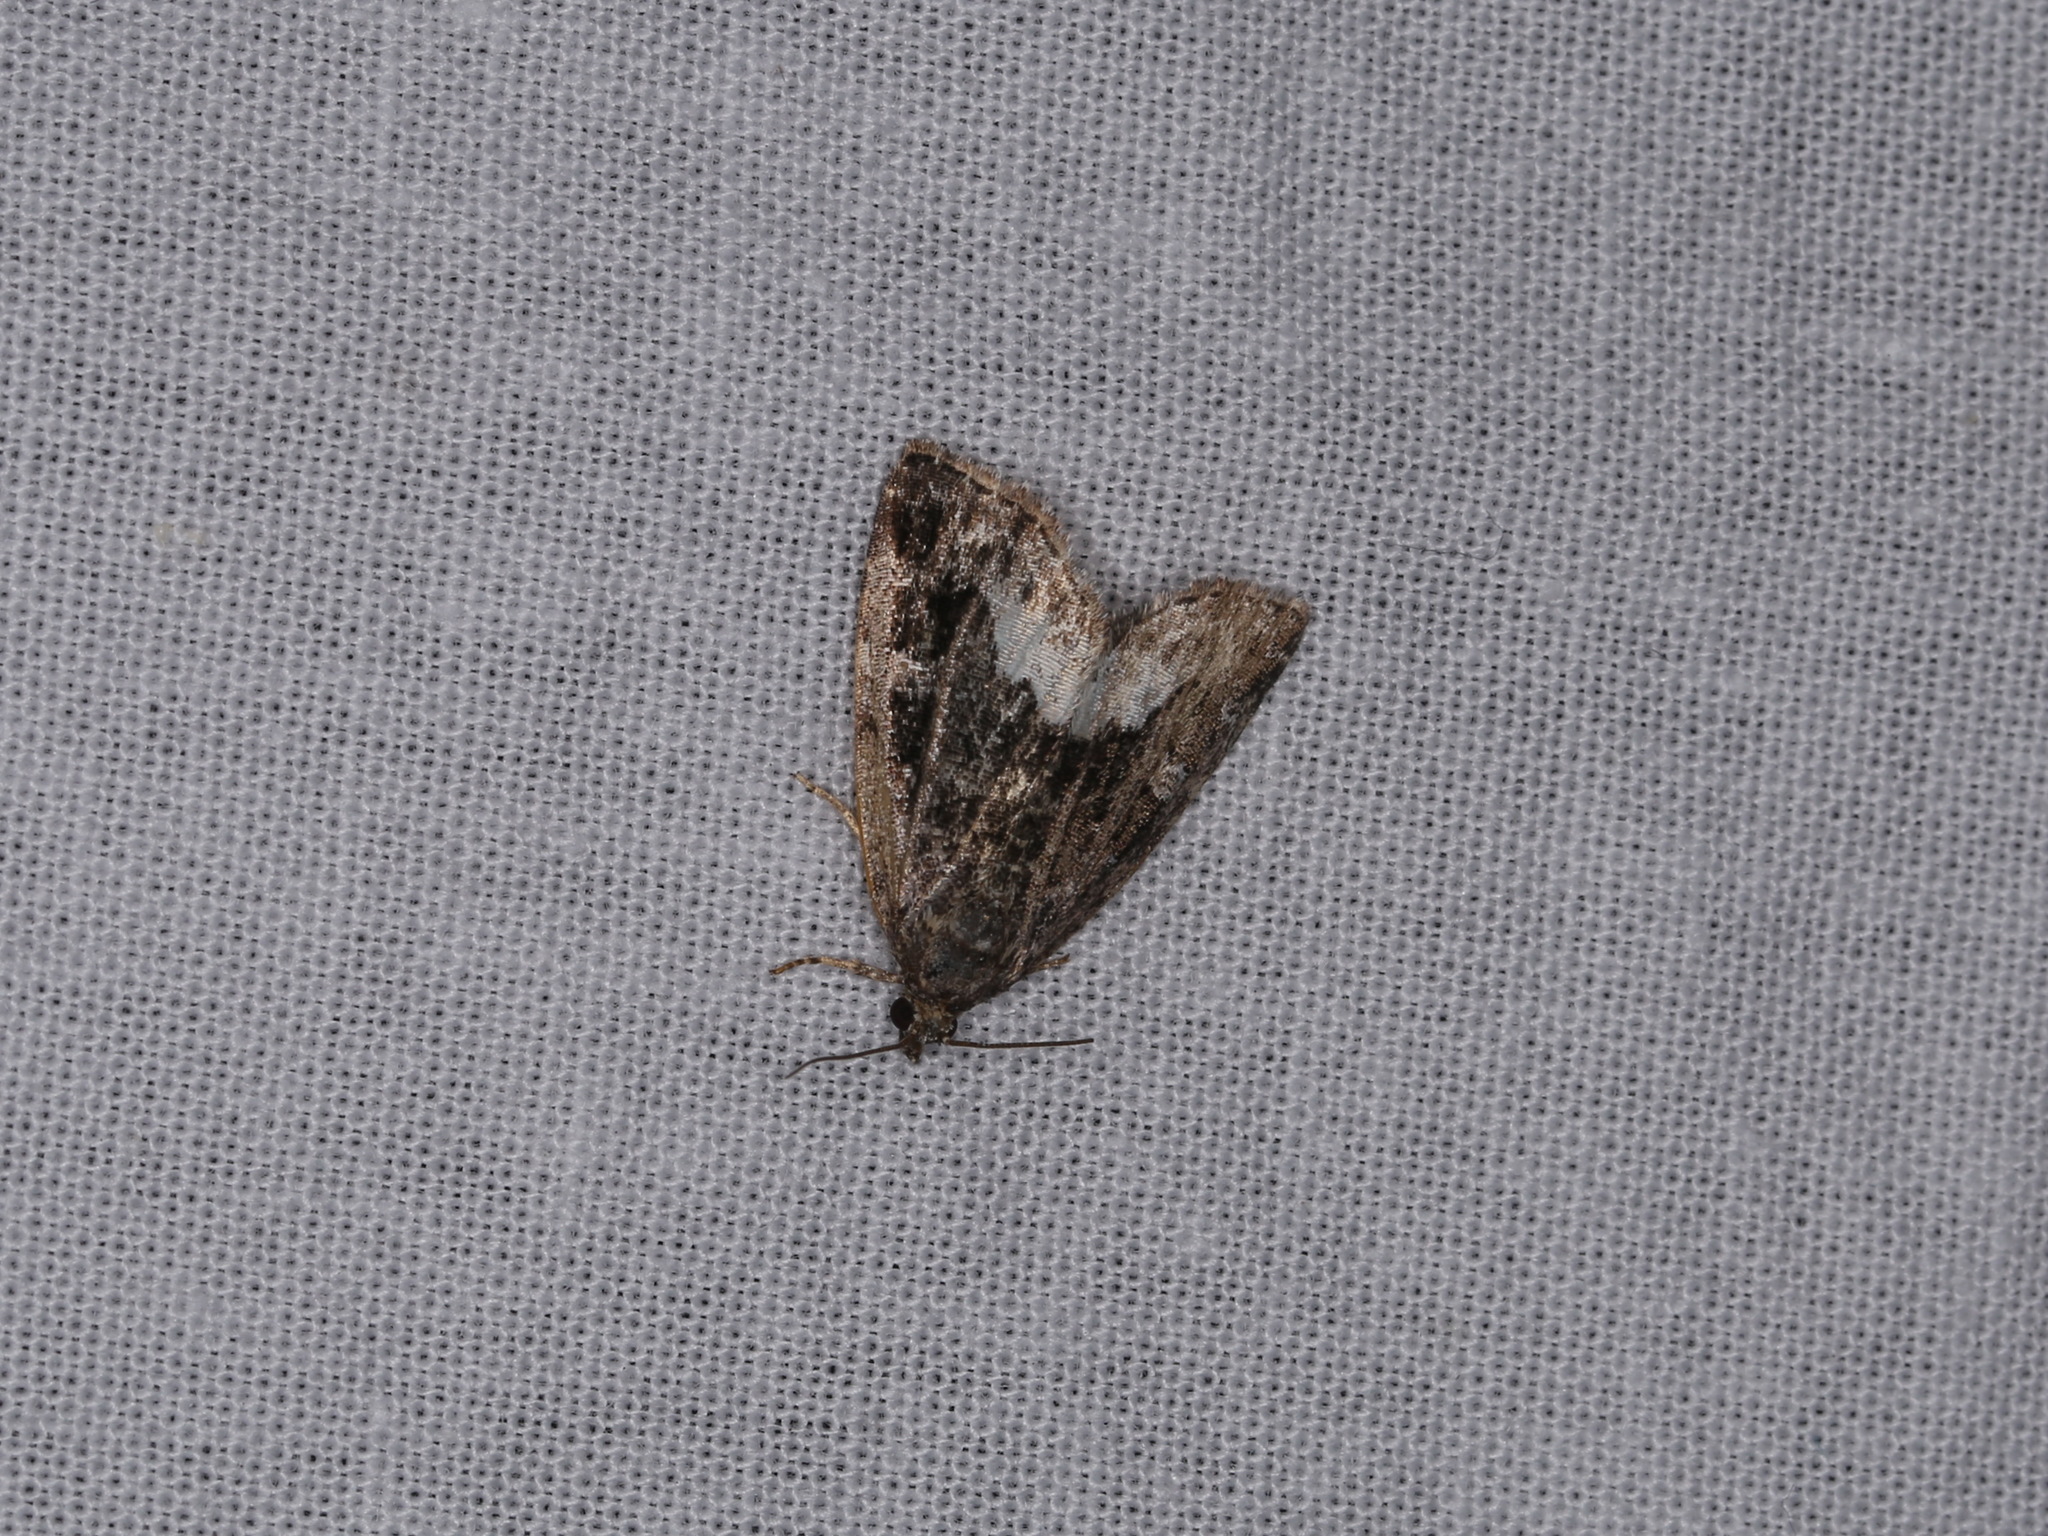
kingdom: Animalia
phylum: Arthropoda
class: Insecta
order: Lepidoptera
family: Noctuidae
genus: Deltote
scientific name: Deltote pygarga
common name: Marbled white spot
